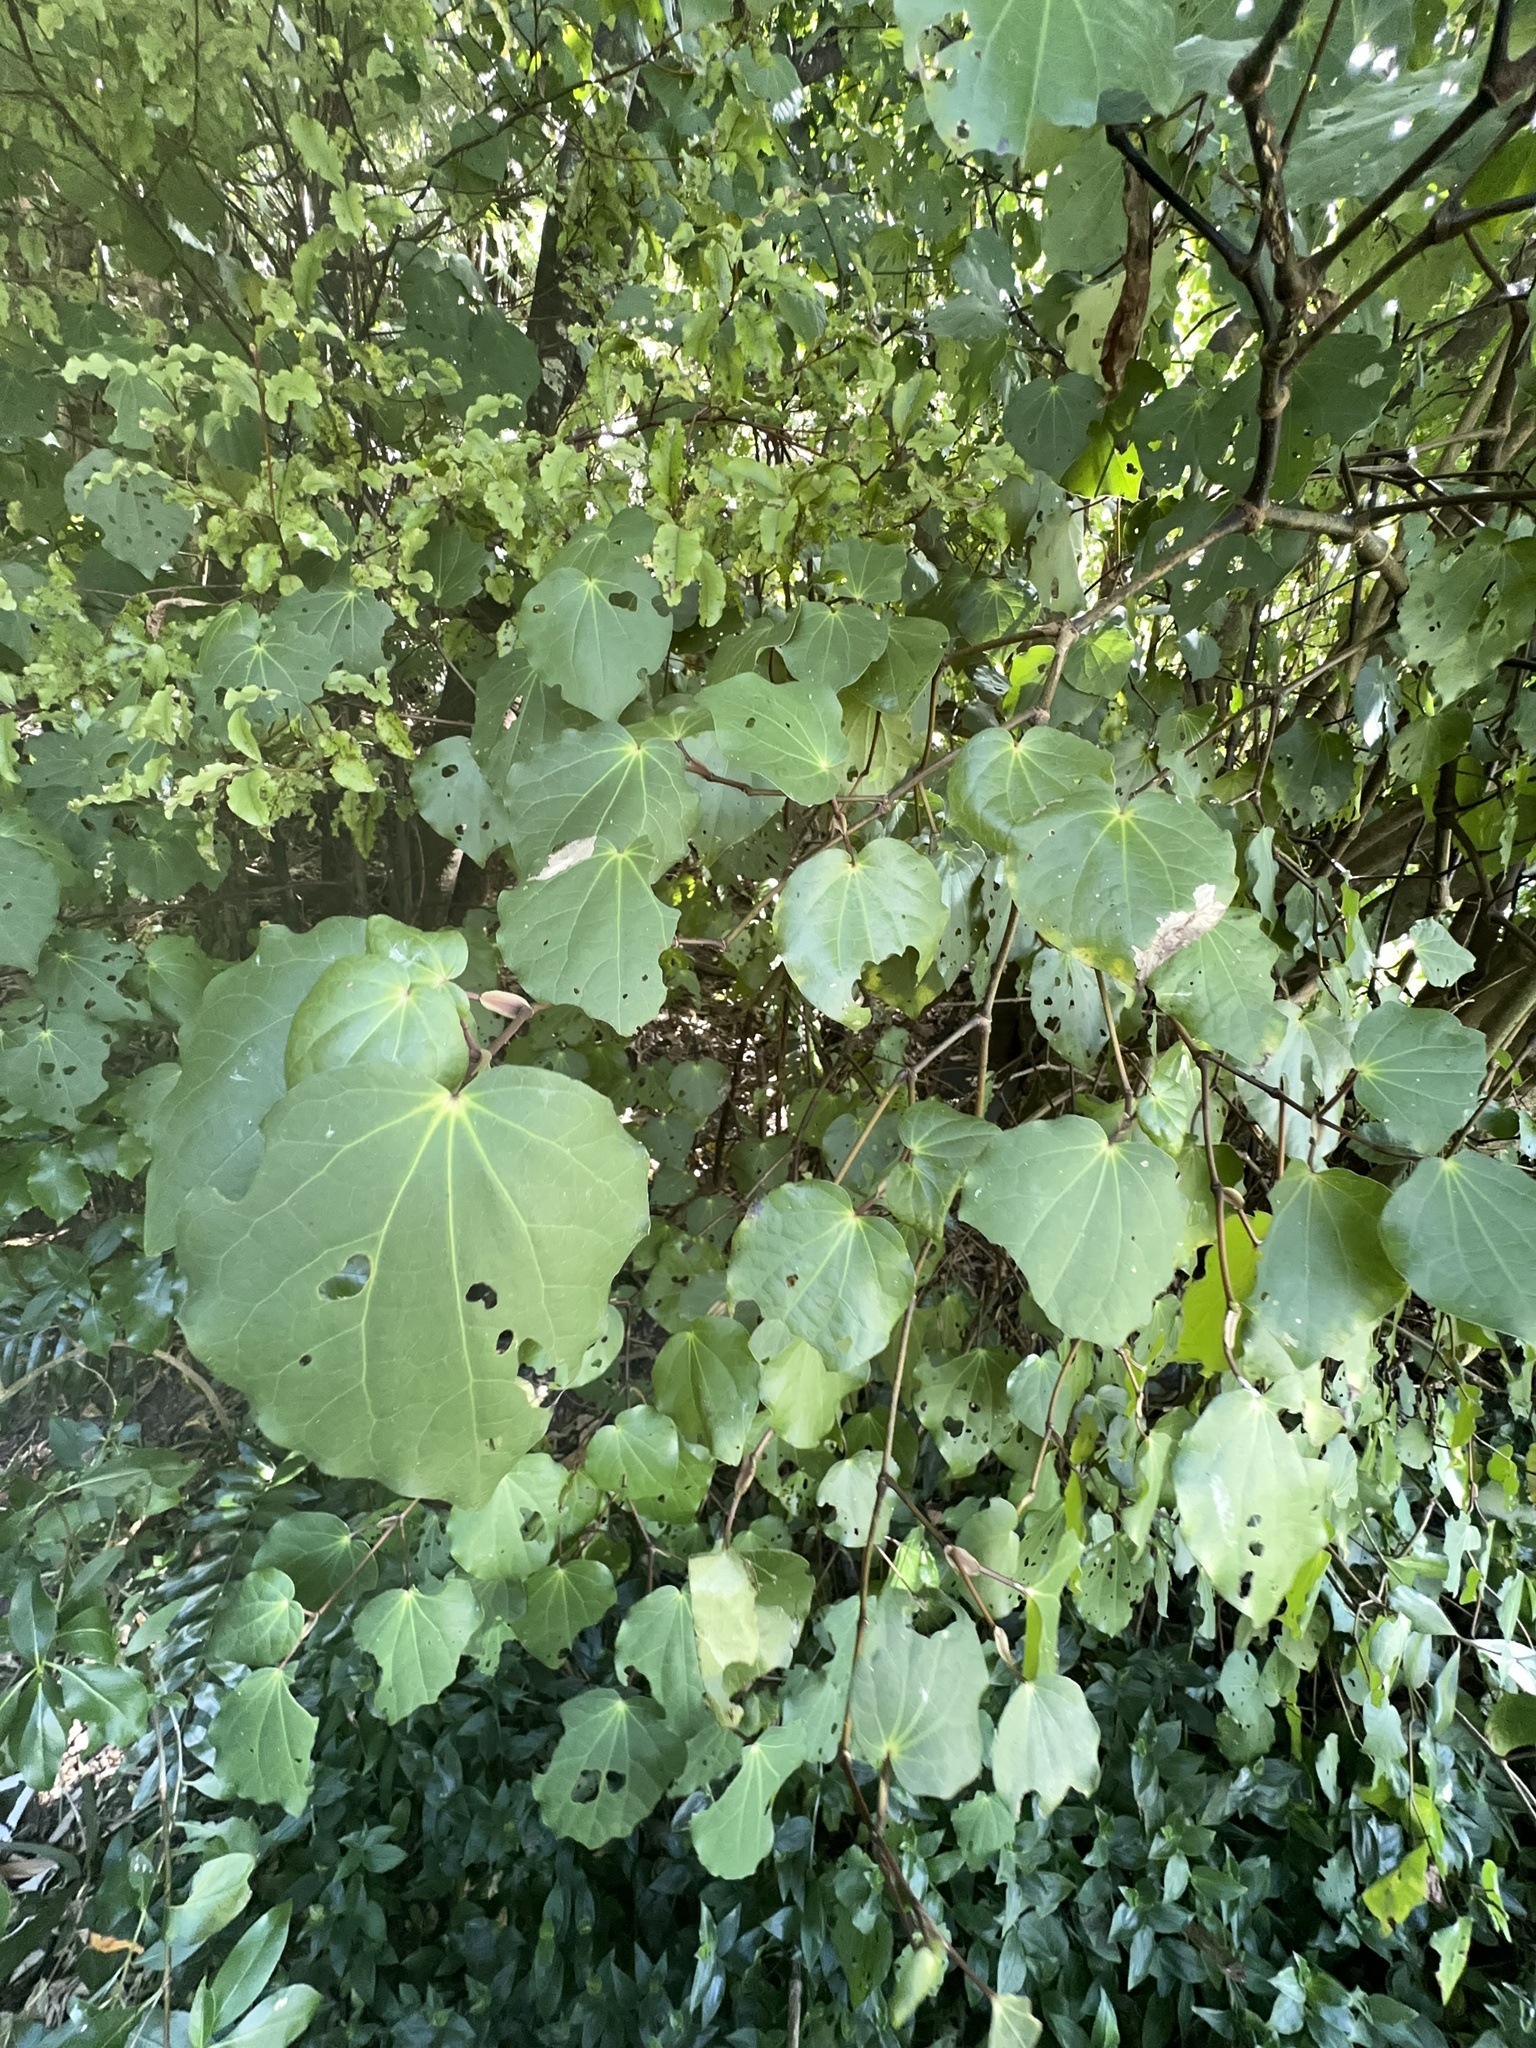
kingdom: Plantae
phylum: Tracheophyta
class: Magnoliopsida
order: Piperales
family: Piperaceae
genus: Macropiper
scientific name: Macropiper excelsum
